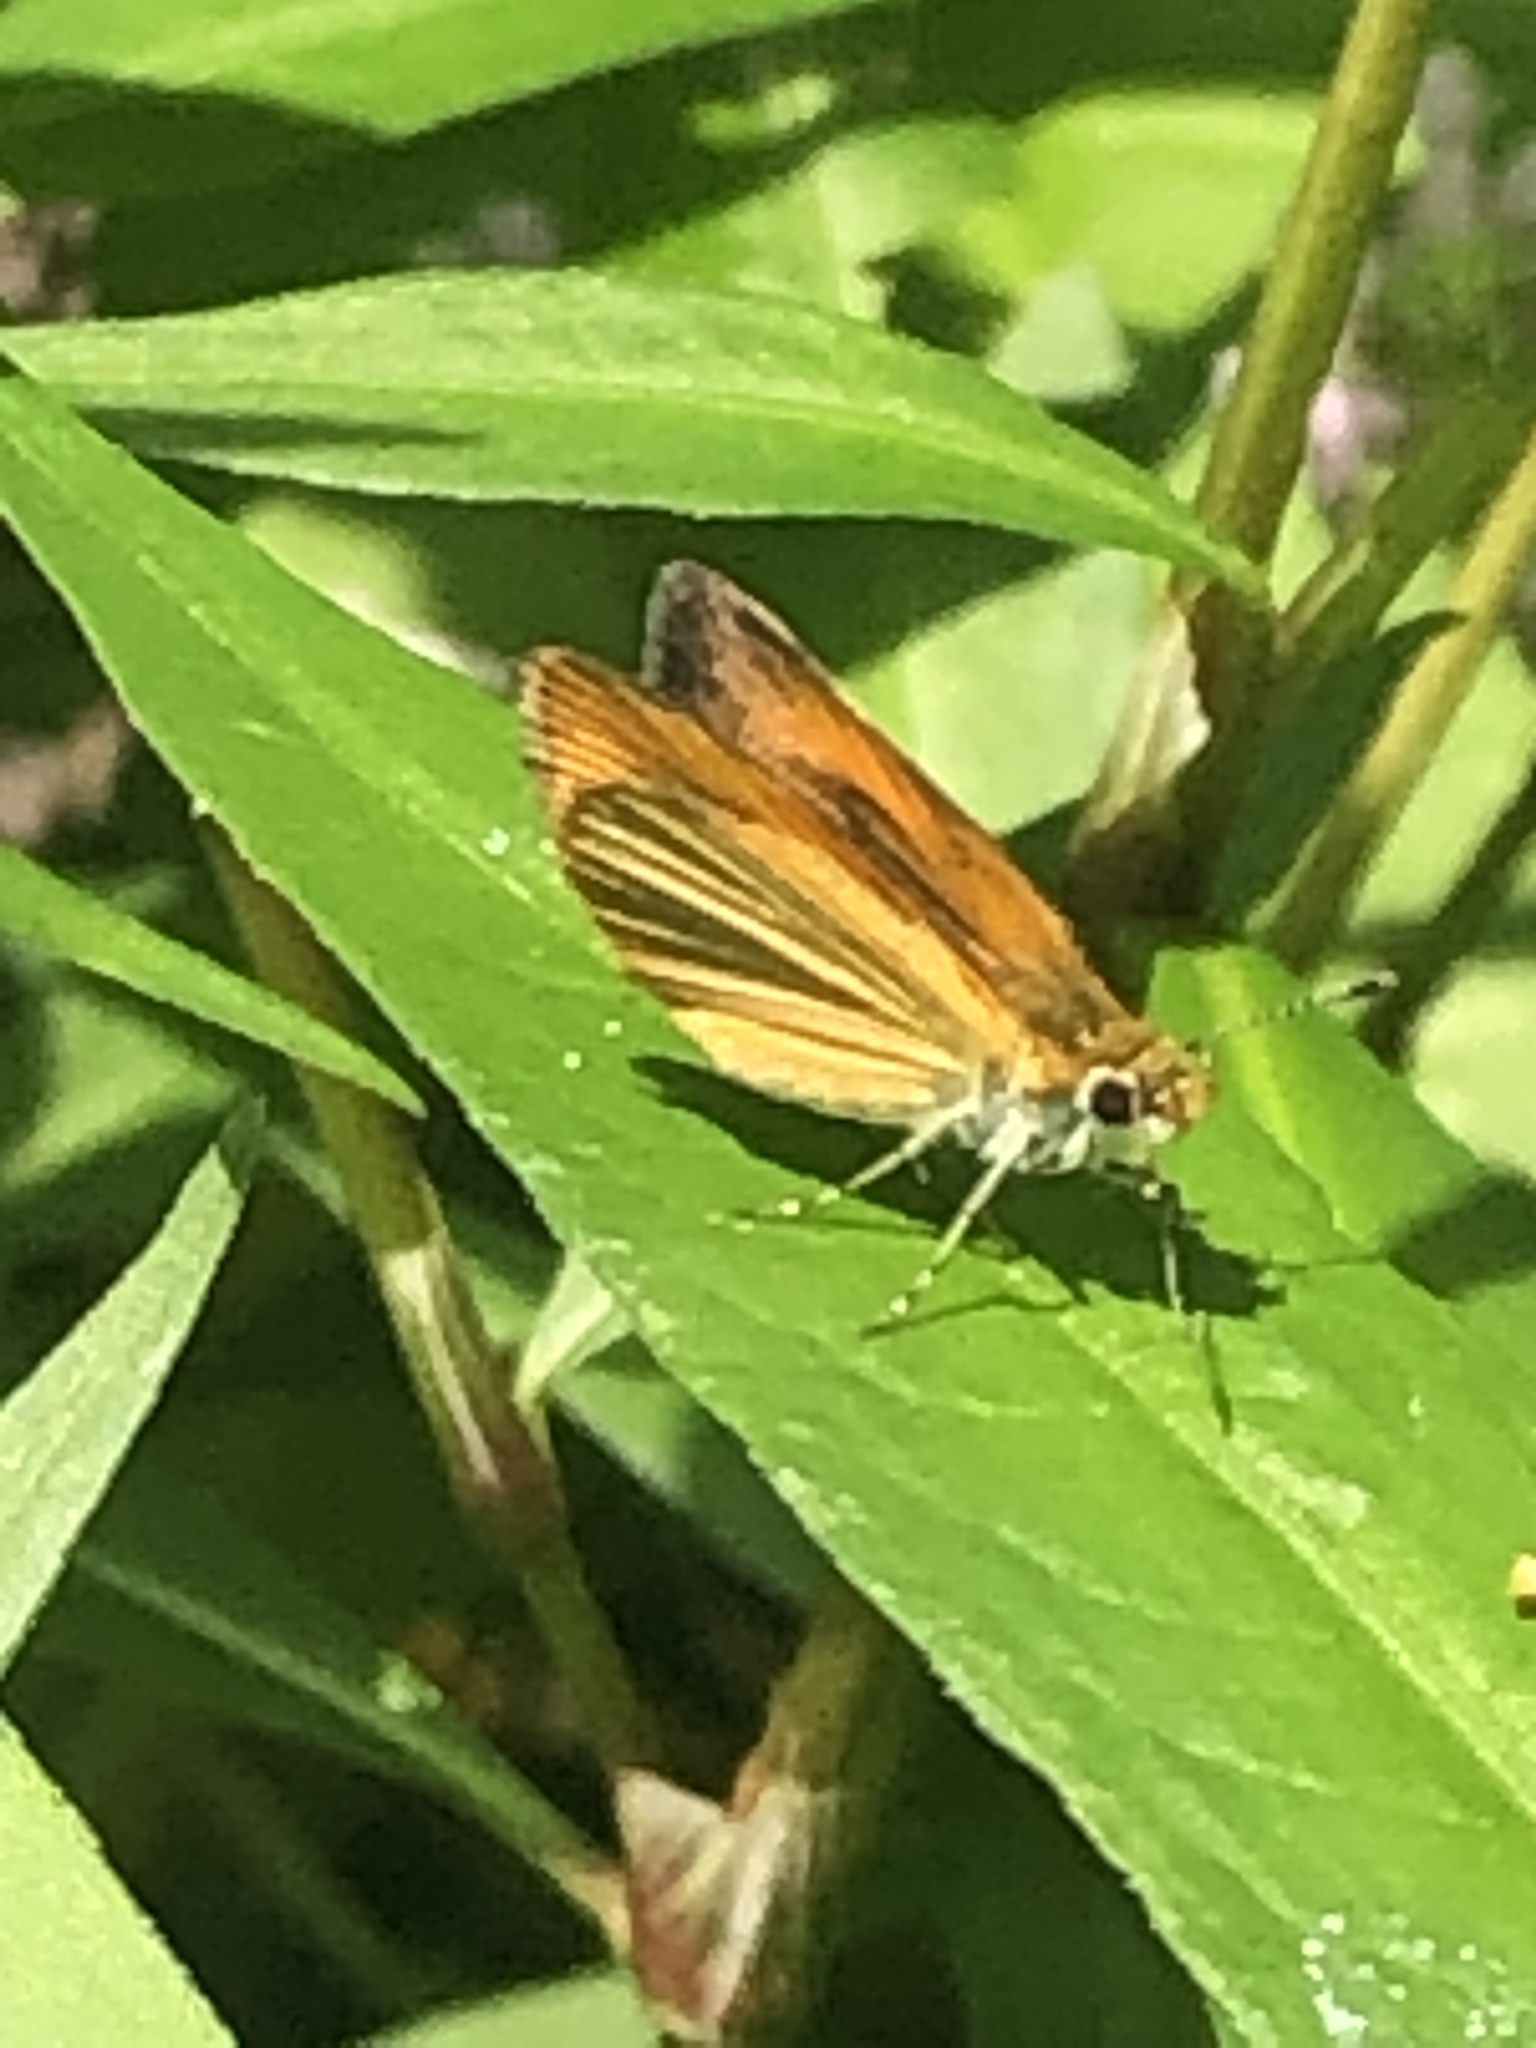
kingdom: Animalia
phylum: Arthropoda
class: Insecta
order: Lepidoptera
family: Hesperiidae
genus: Ancyloxypha
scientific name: Ancyloxypha numitor
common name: Least skipper
